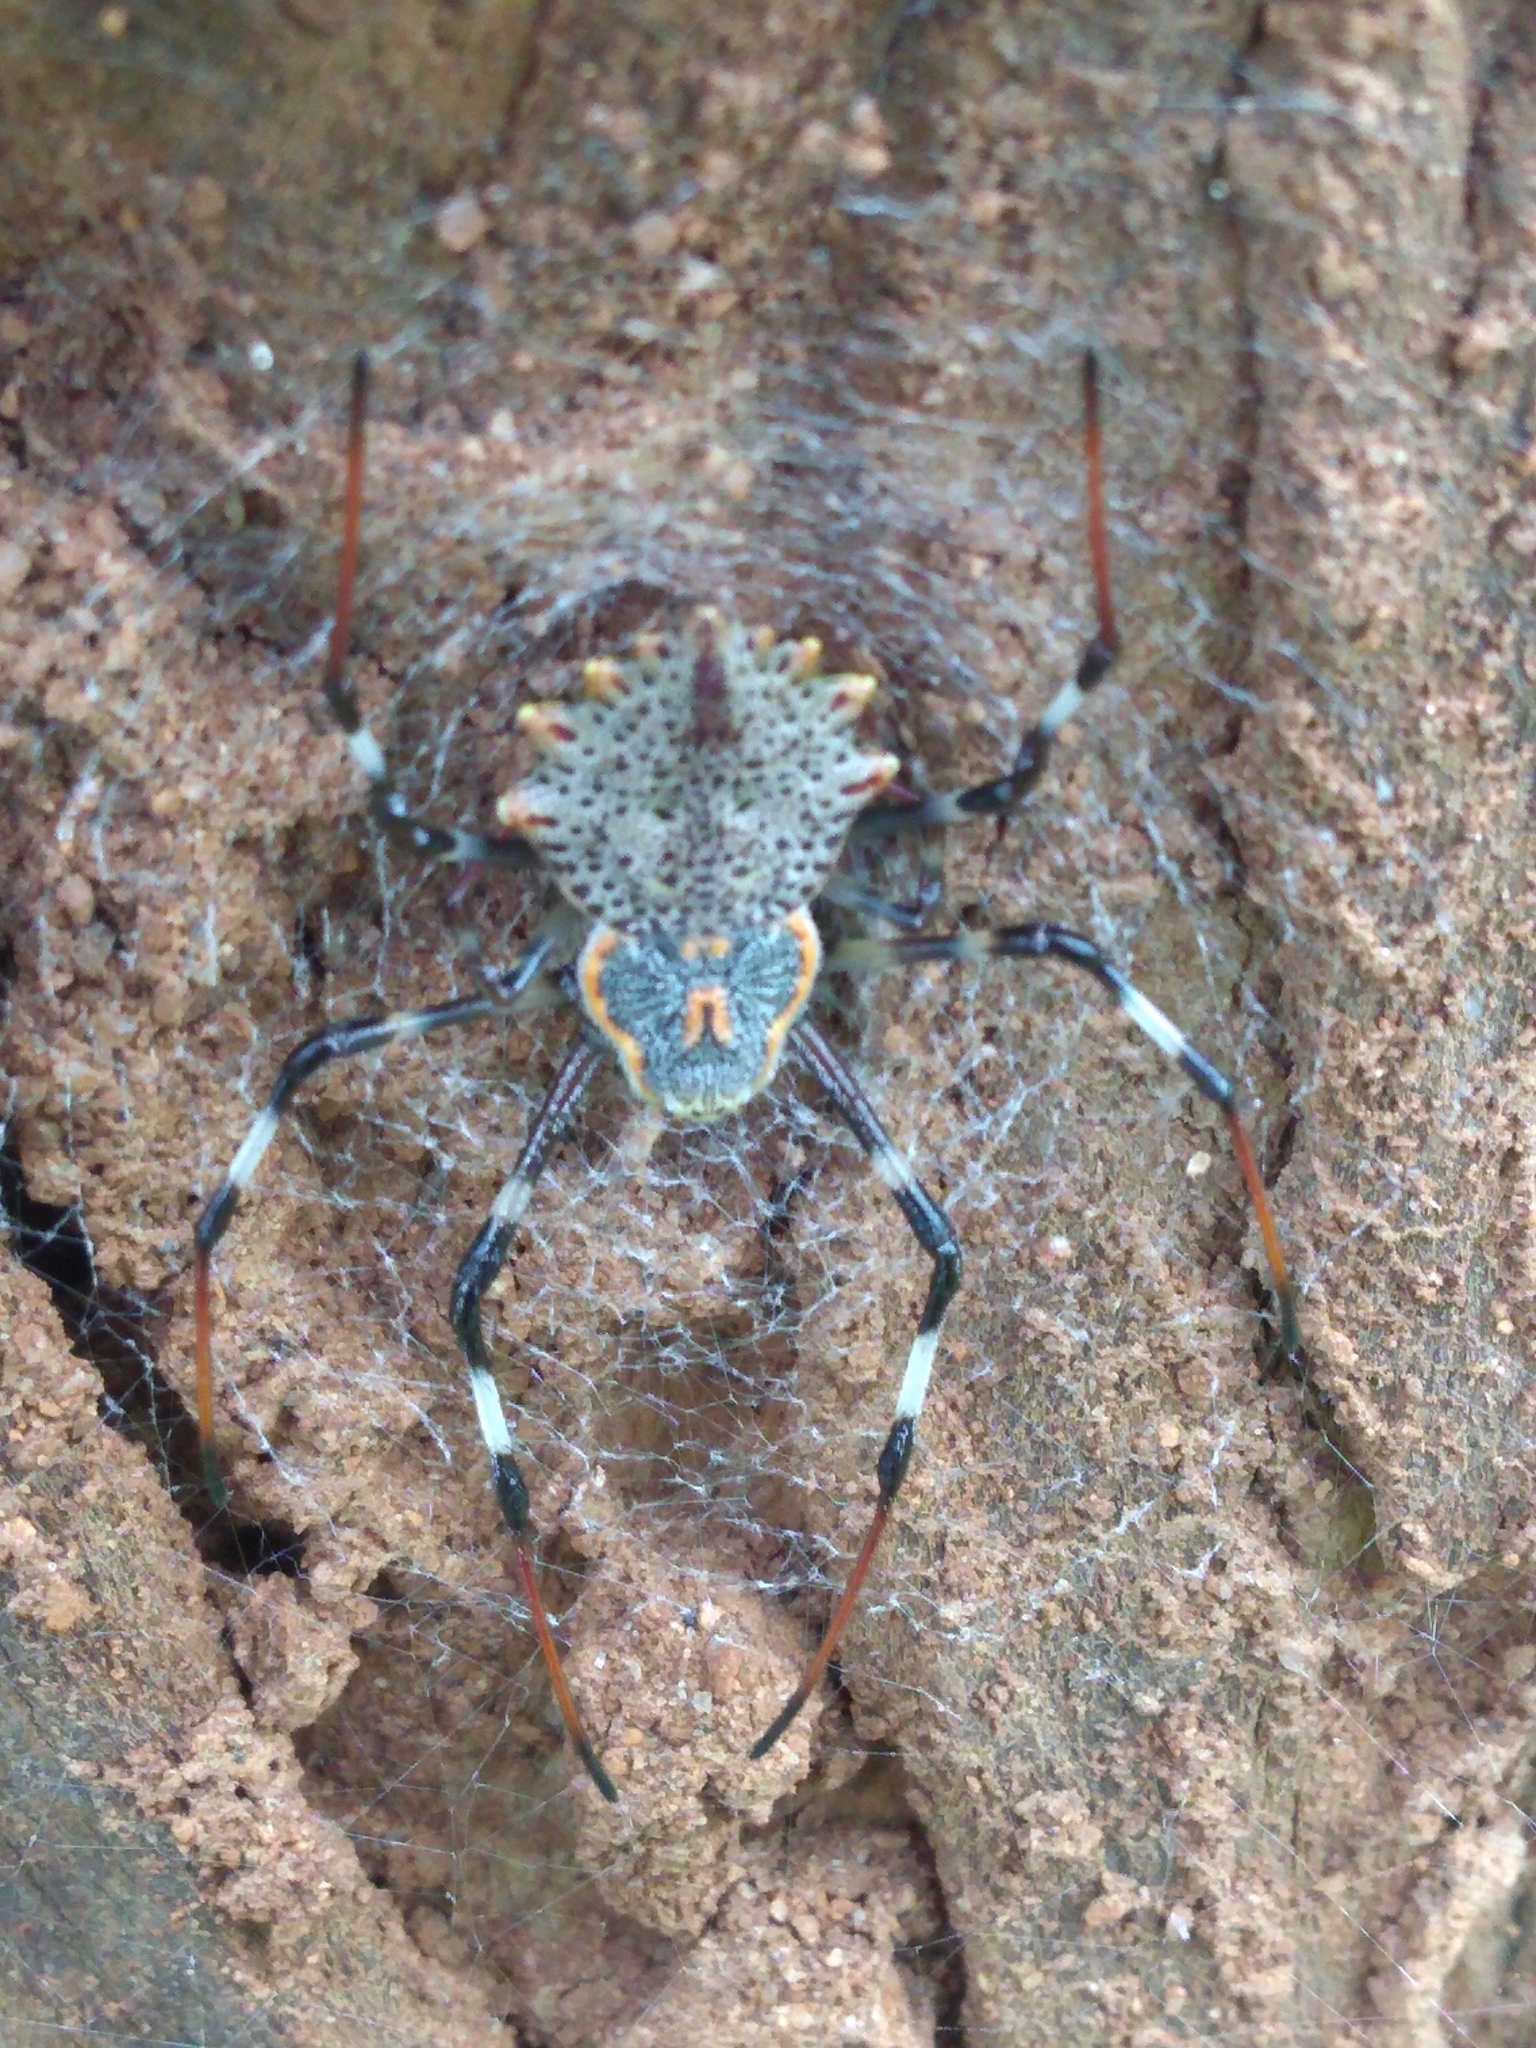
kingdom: Animalia
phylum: Arthropoda
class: Arachnida
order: Araneae
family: Araneidae
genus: Herennia
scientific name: Herennia multipuncta
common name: Spotted coin spider
